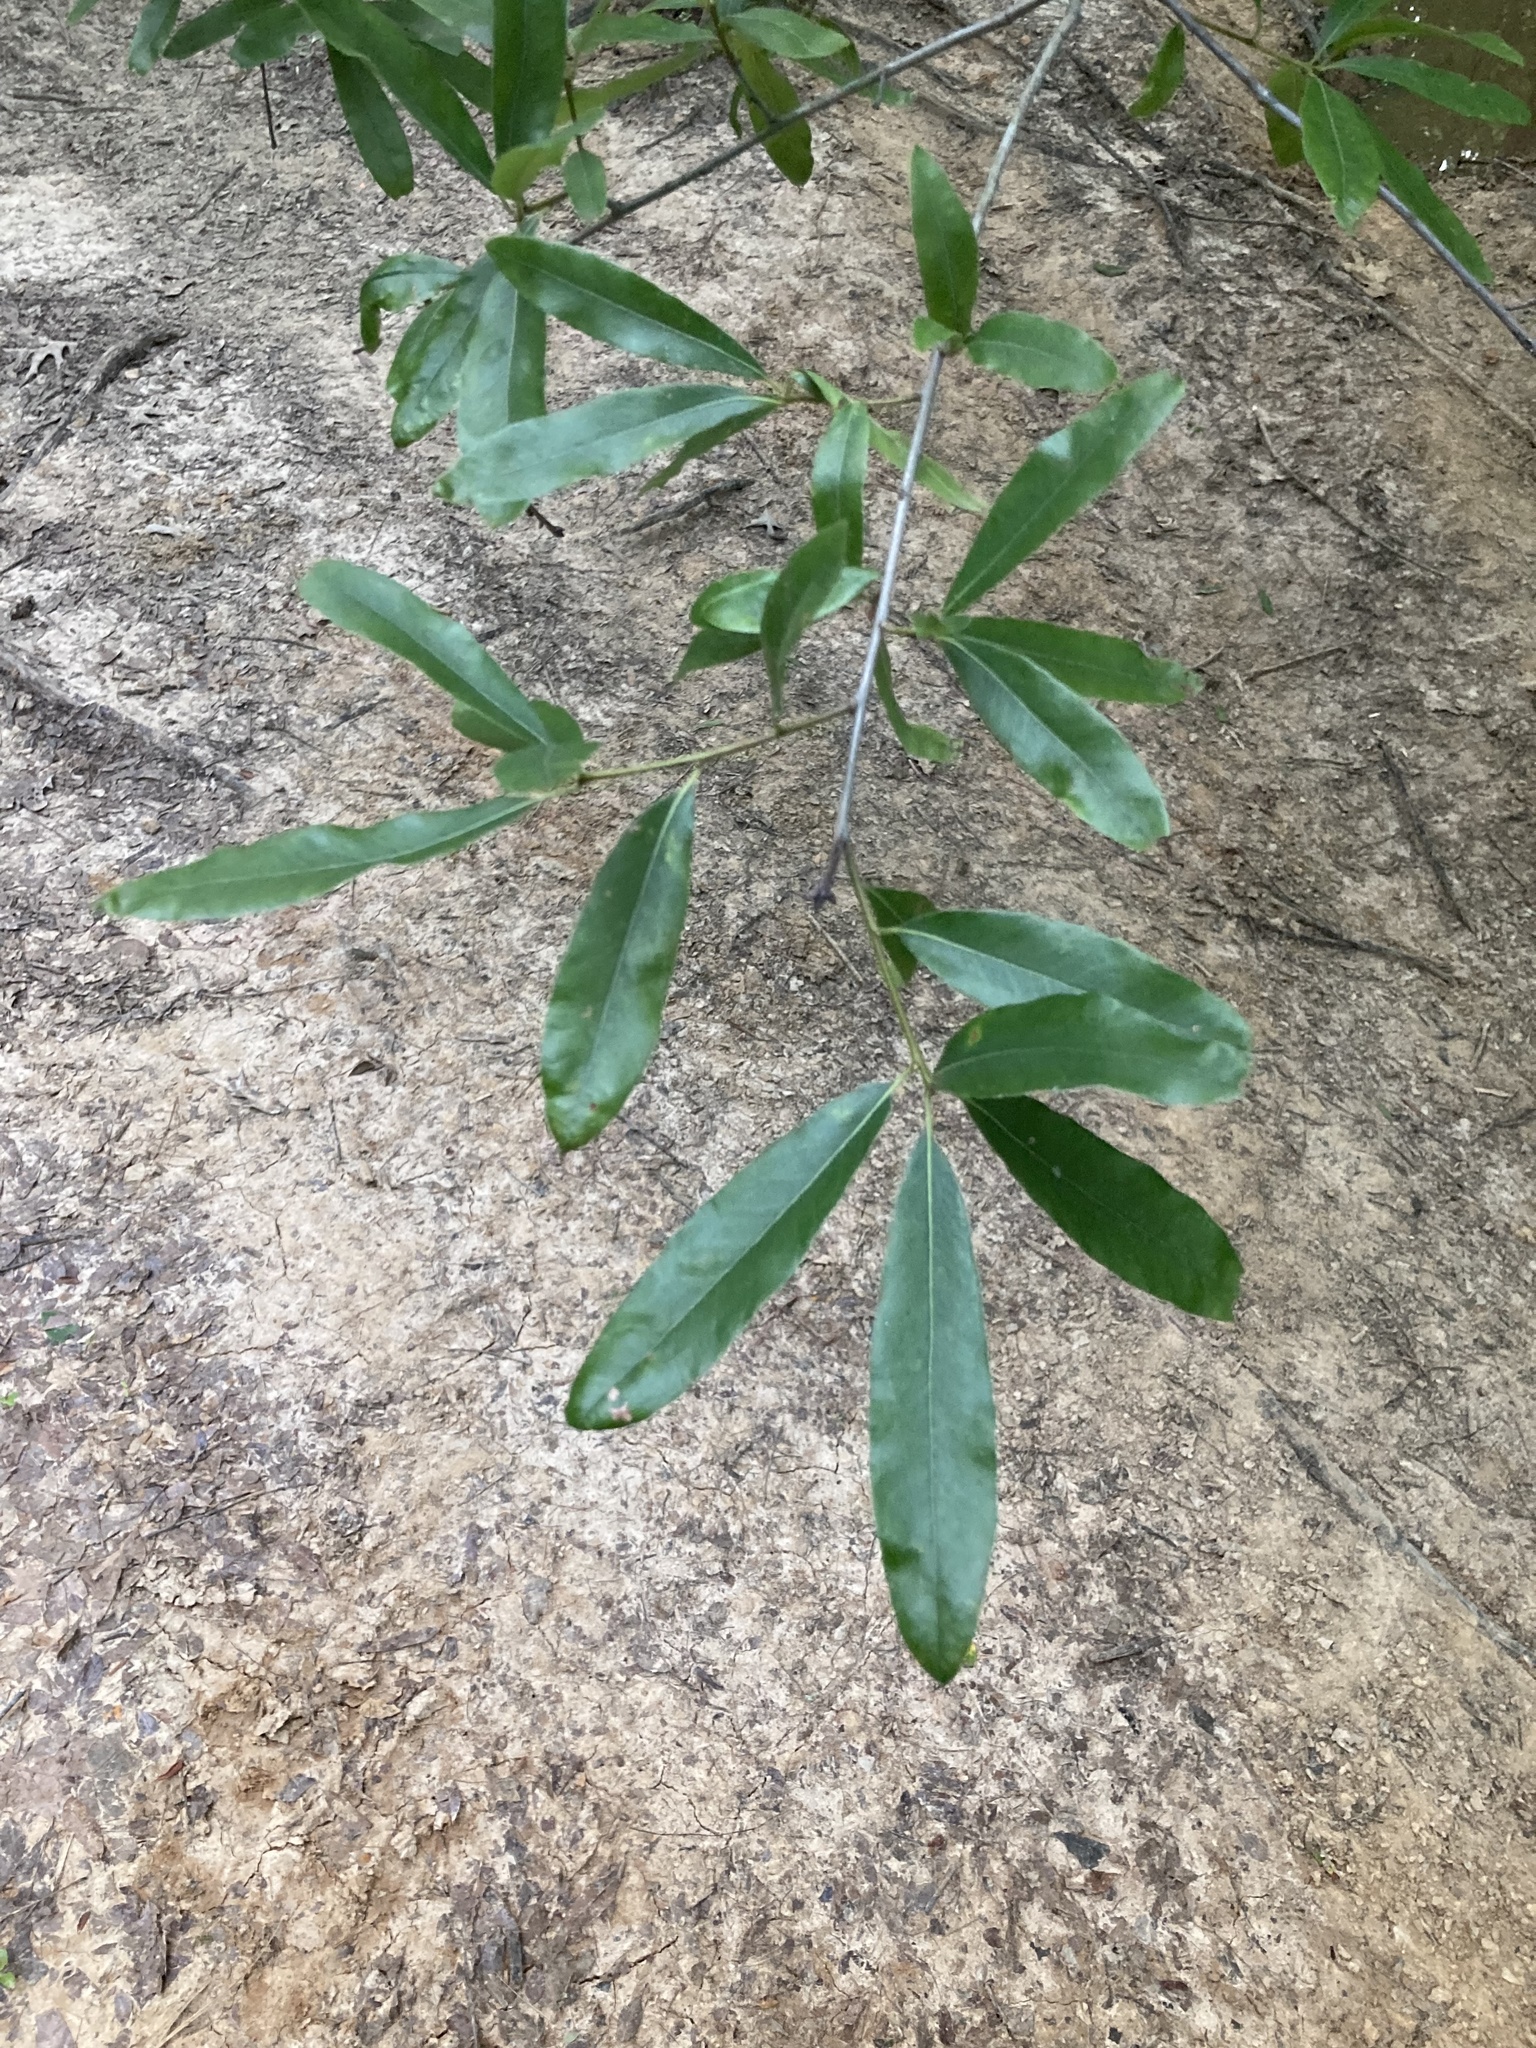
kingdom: Plantae
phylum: Tracheophyta
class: Magnoliopsida
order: Fagales
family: Fagaceae
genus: Quercus
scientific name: Quercus phellos
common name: Willow oak
